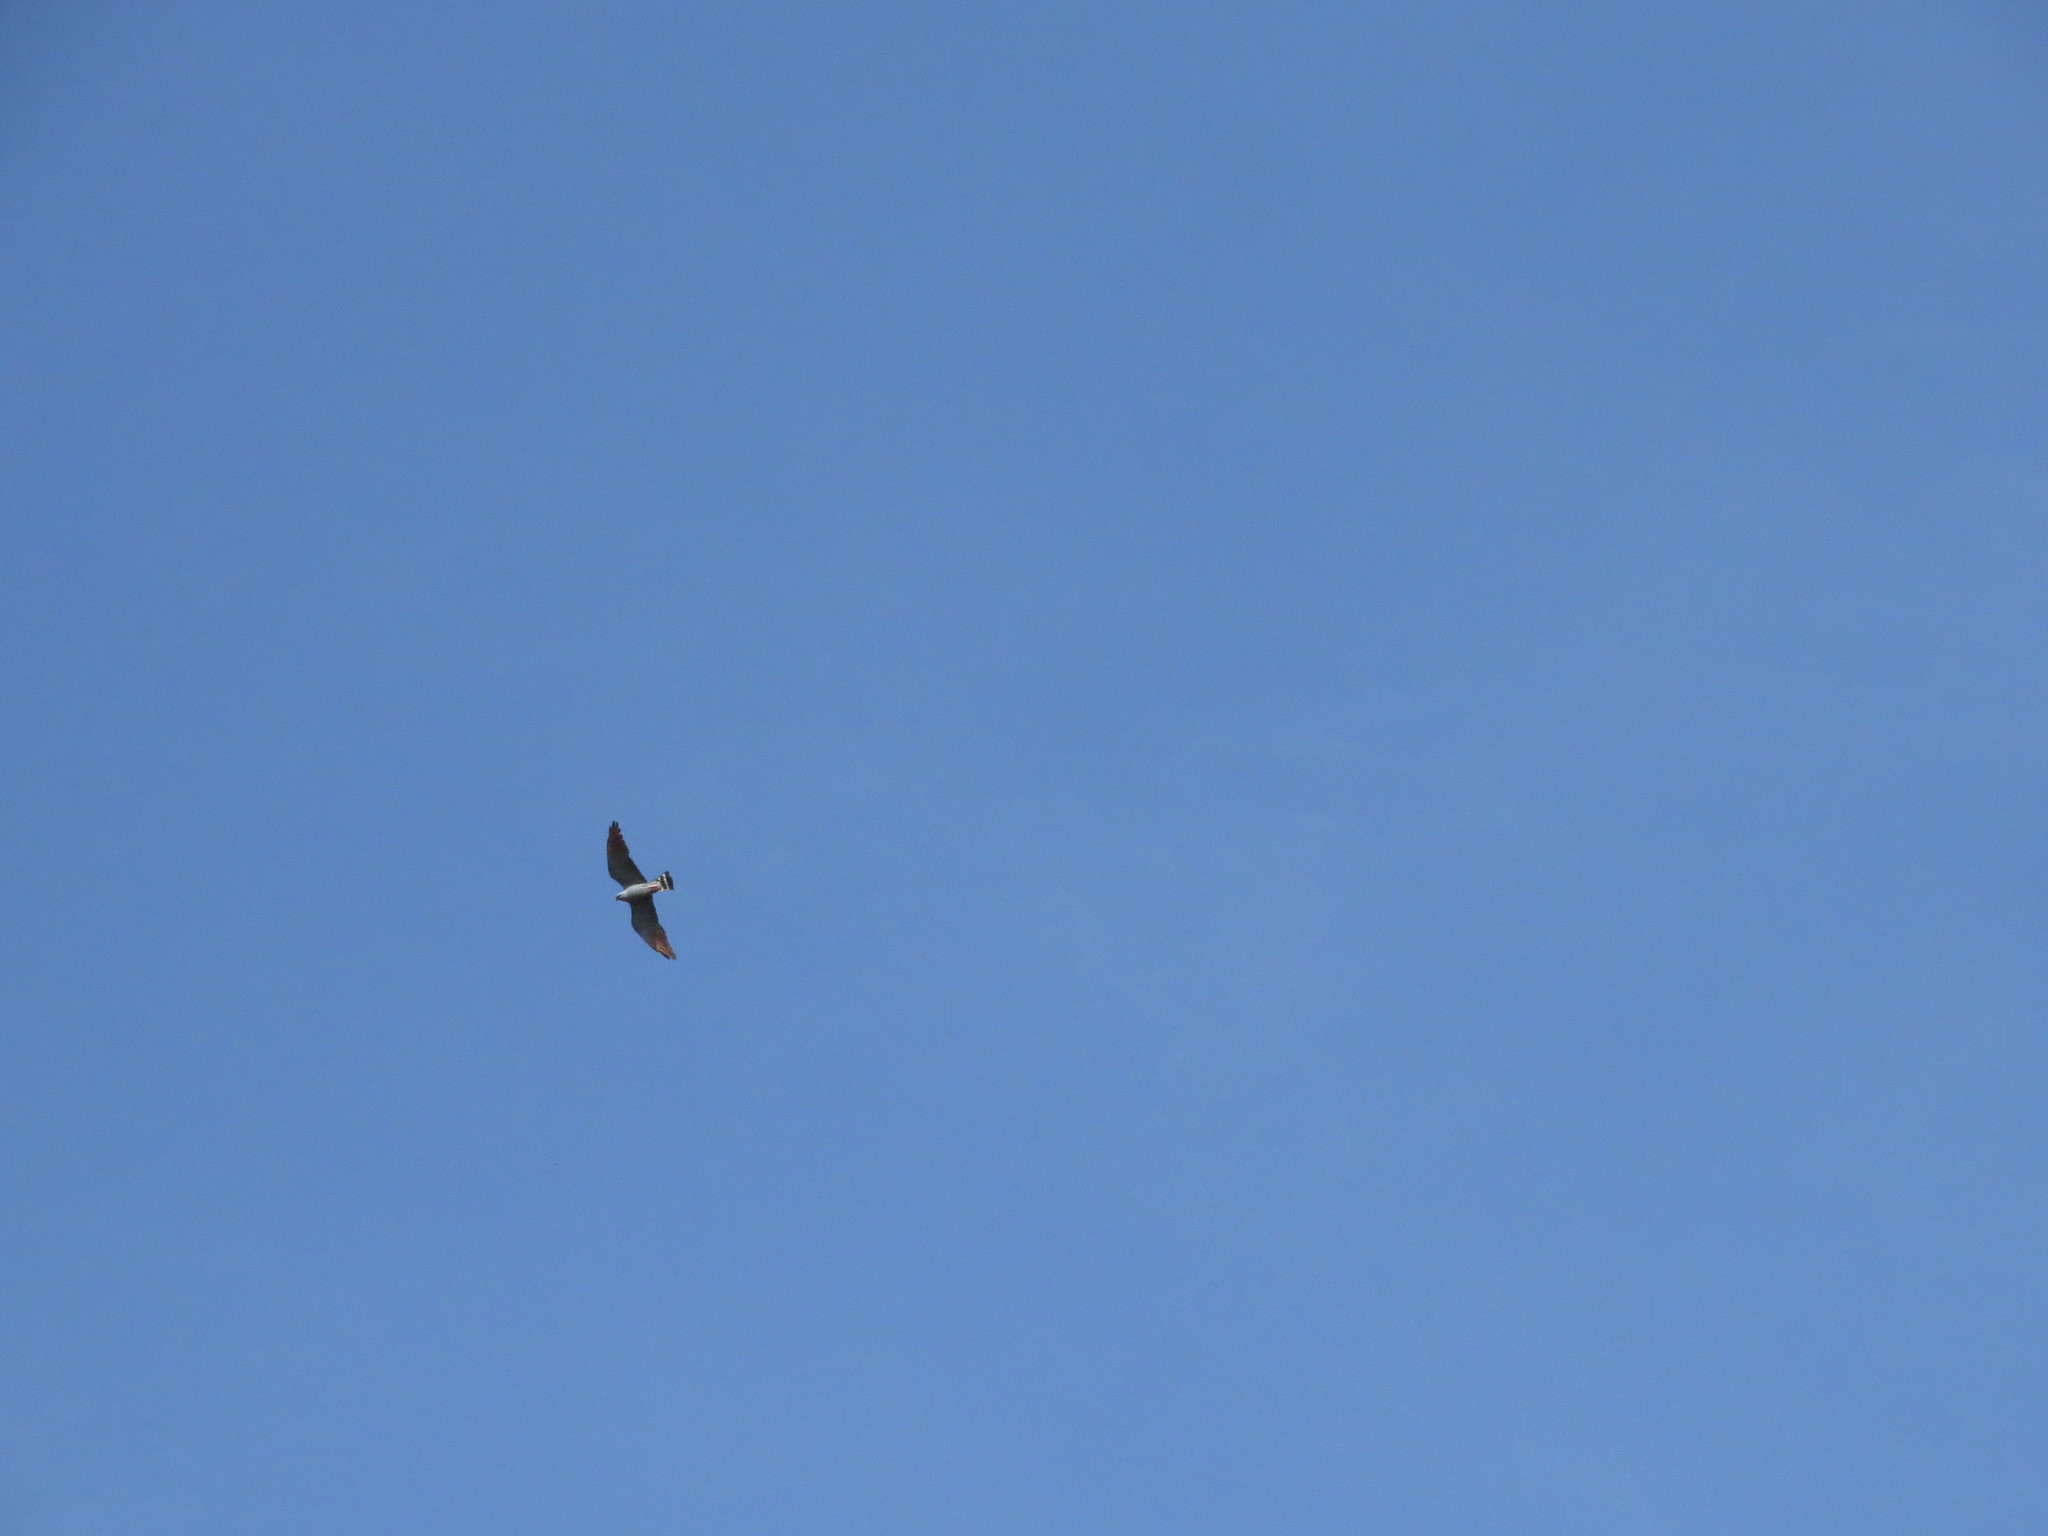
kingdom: Animalia
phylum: Chordata
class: Aves
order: Accipitriformes
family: Accipitridae
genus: Ictinia
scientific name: Ictinia plumbea
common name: Plumbeous kite
